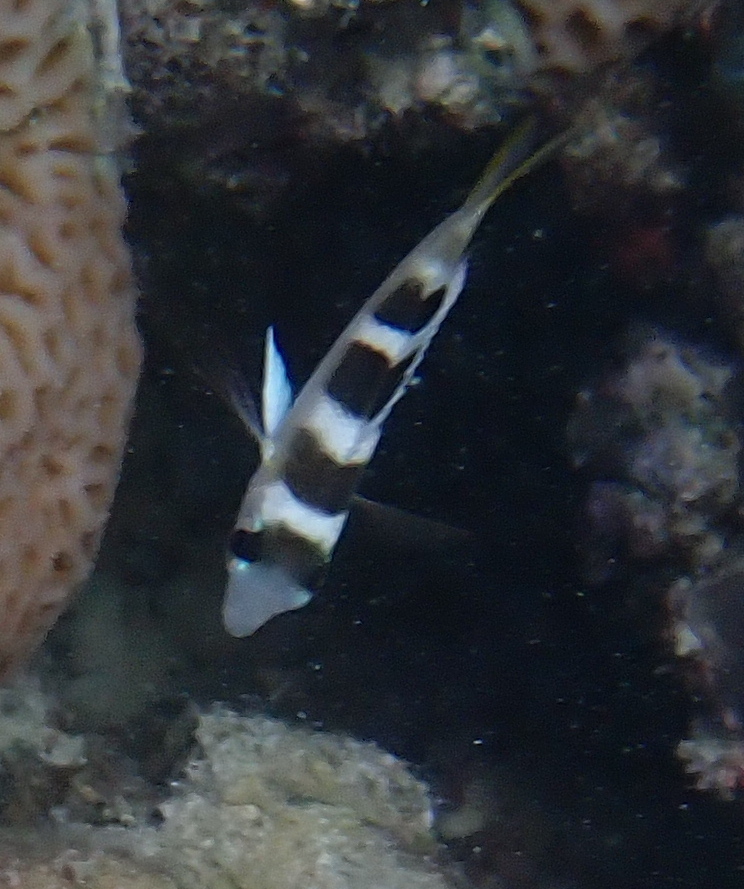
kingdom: Animalia
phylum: Chordata
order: Perciformes
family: Lethrinidae
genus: Monotaxis
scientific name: Monotaxis grandoculis
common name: Bigeye emperor
